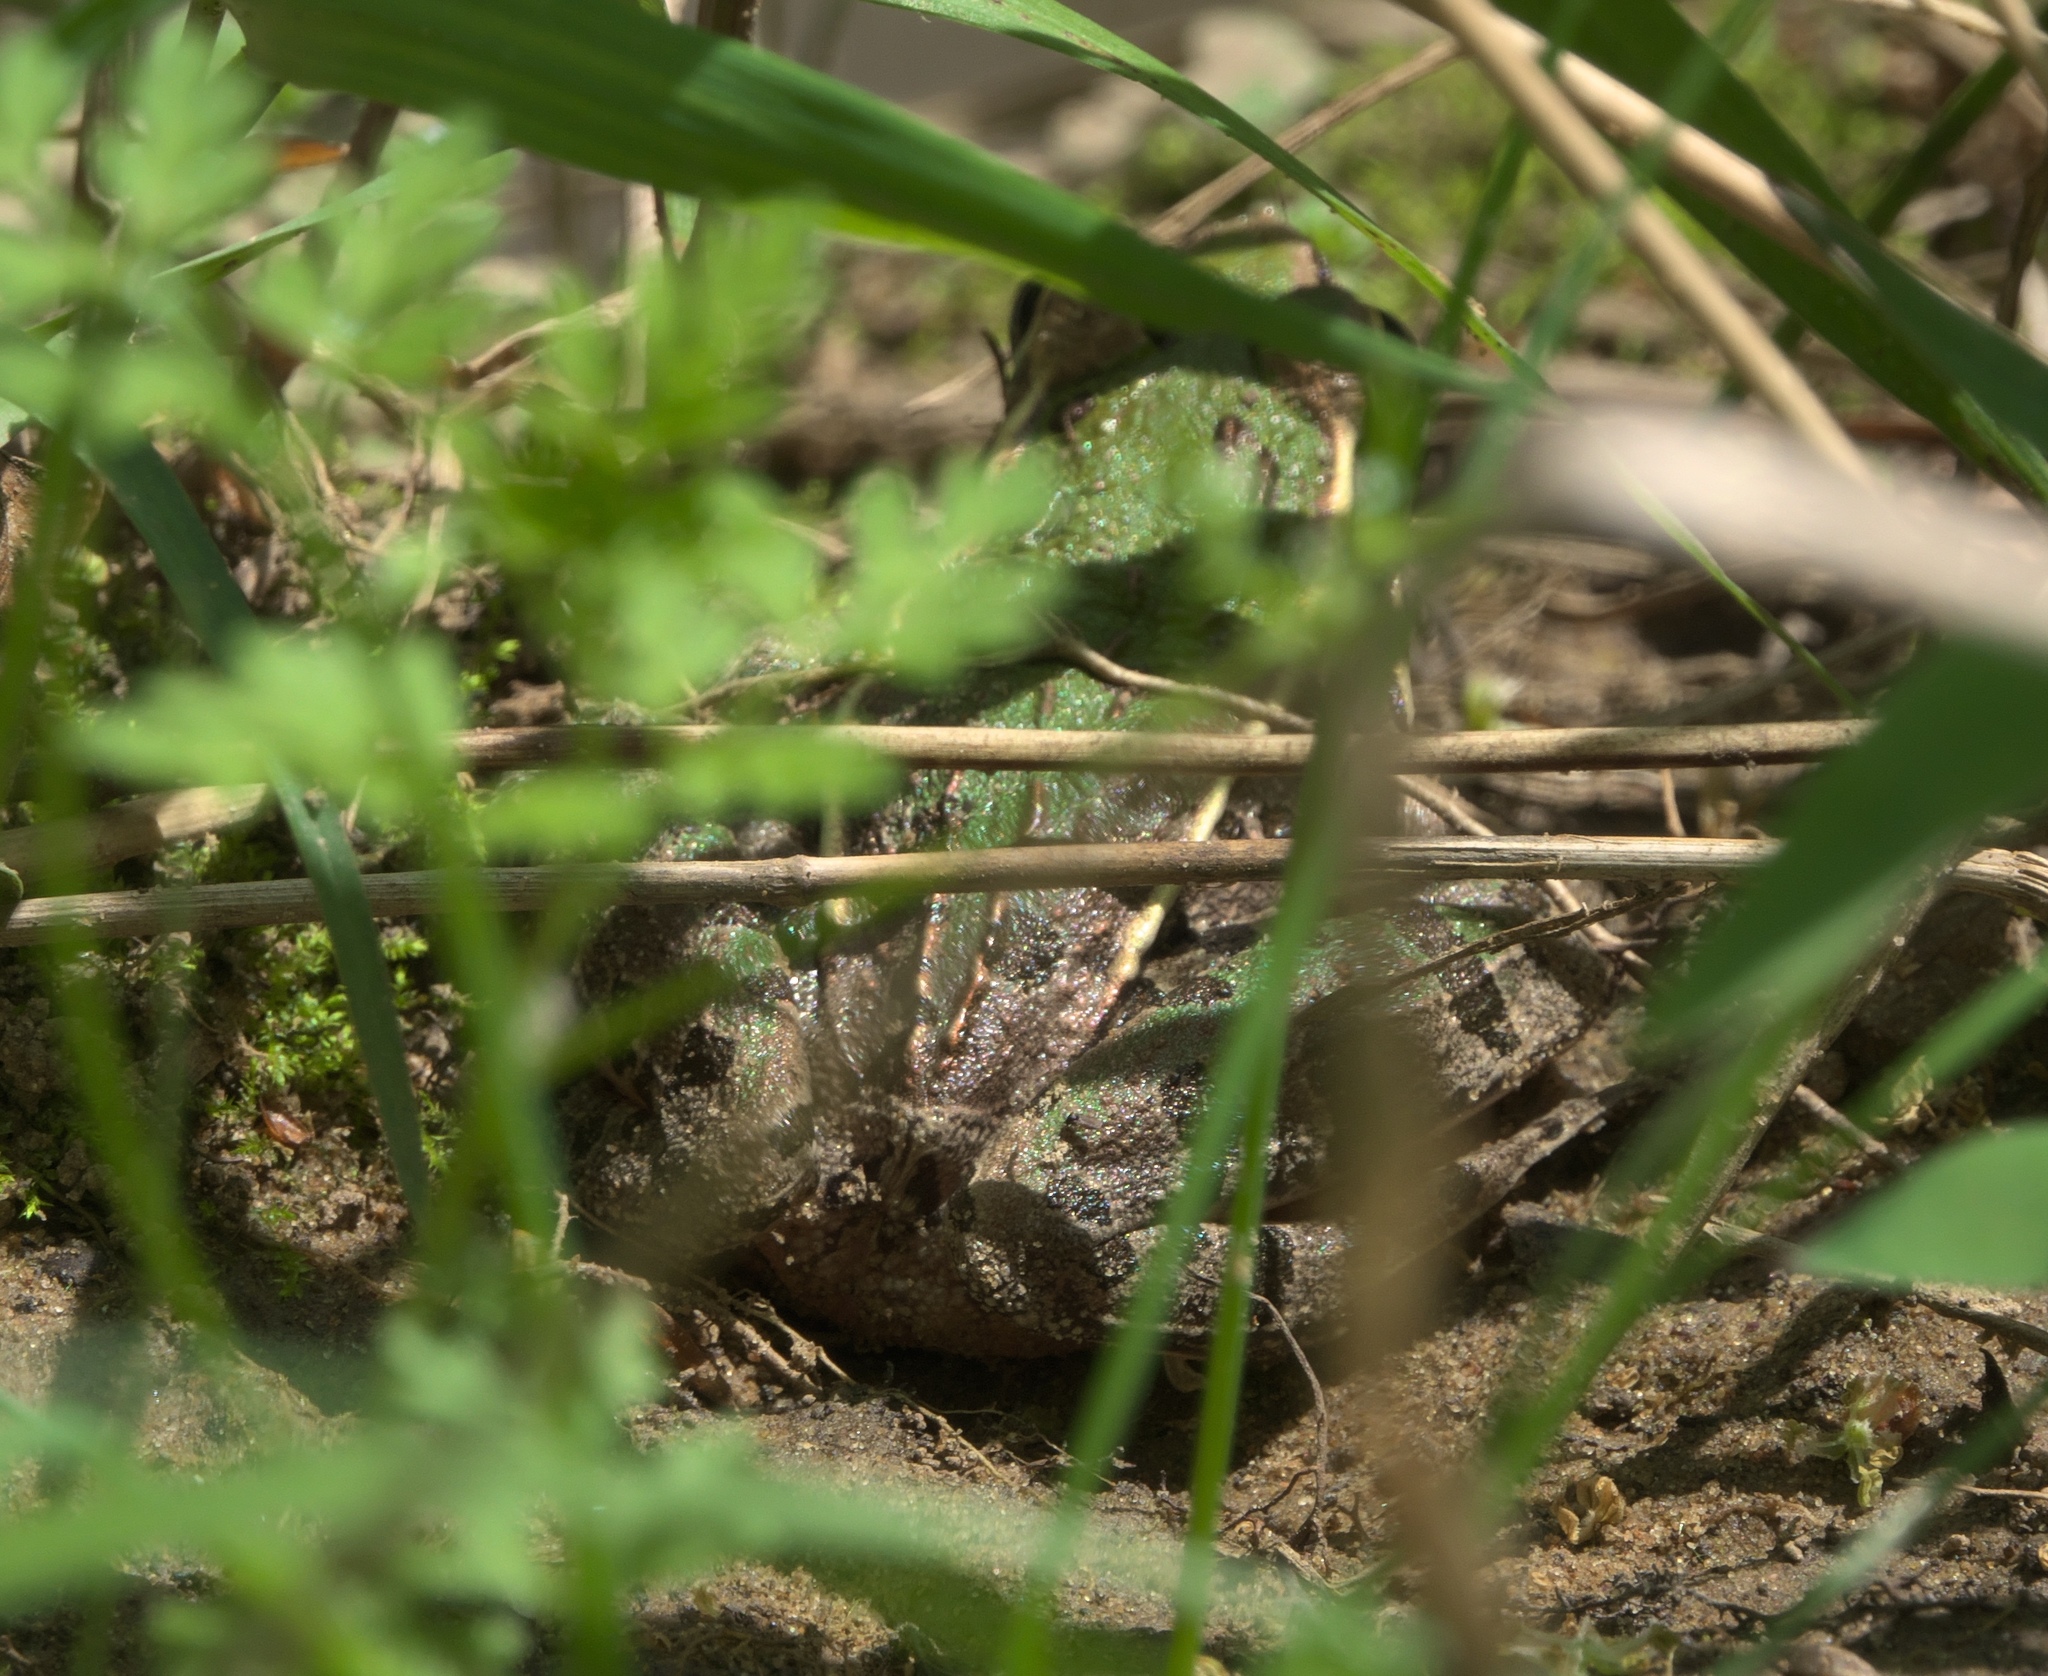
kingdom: Animalia
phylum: Chordata
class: Amphibia
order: Anura
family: Ranidae
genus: Lithobates
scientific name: Lithobates sphenocephalus
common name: Southern leopard frog
